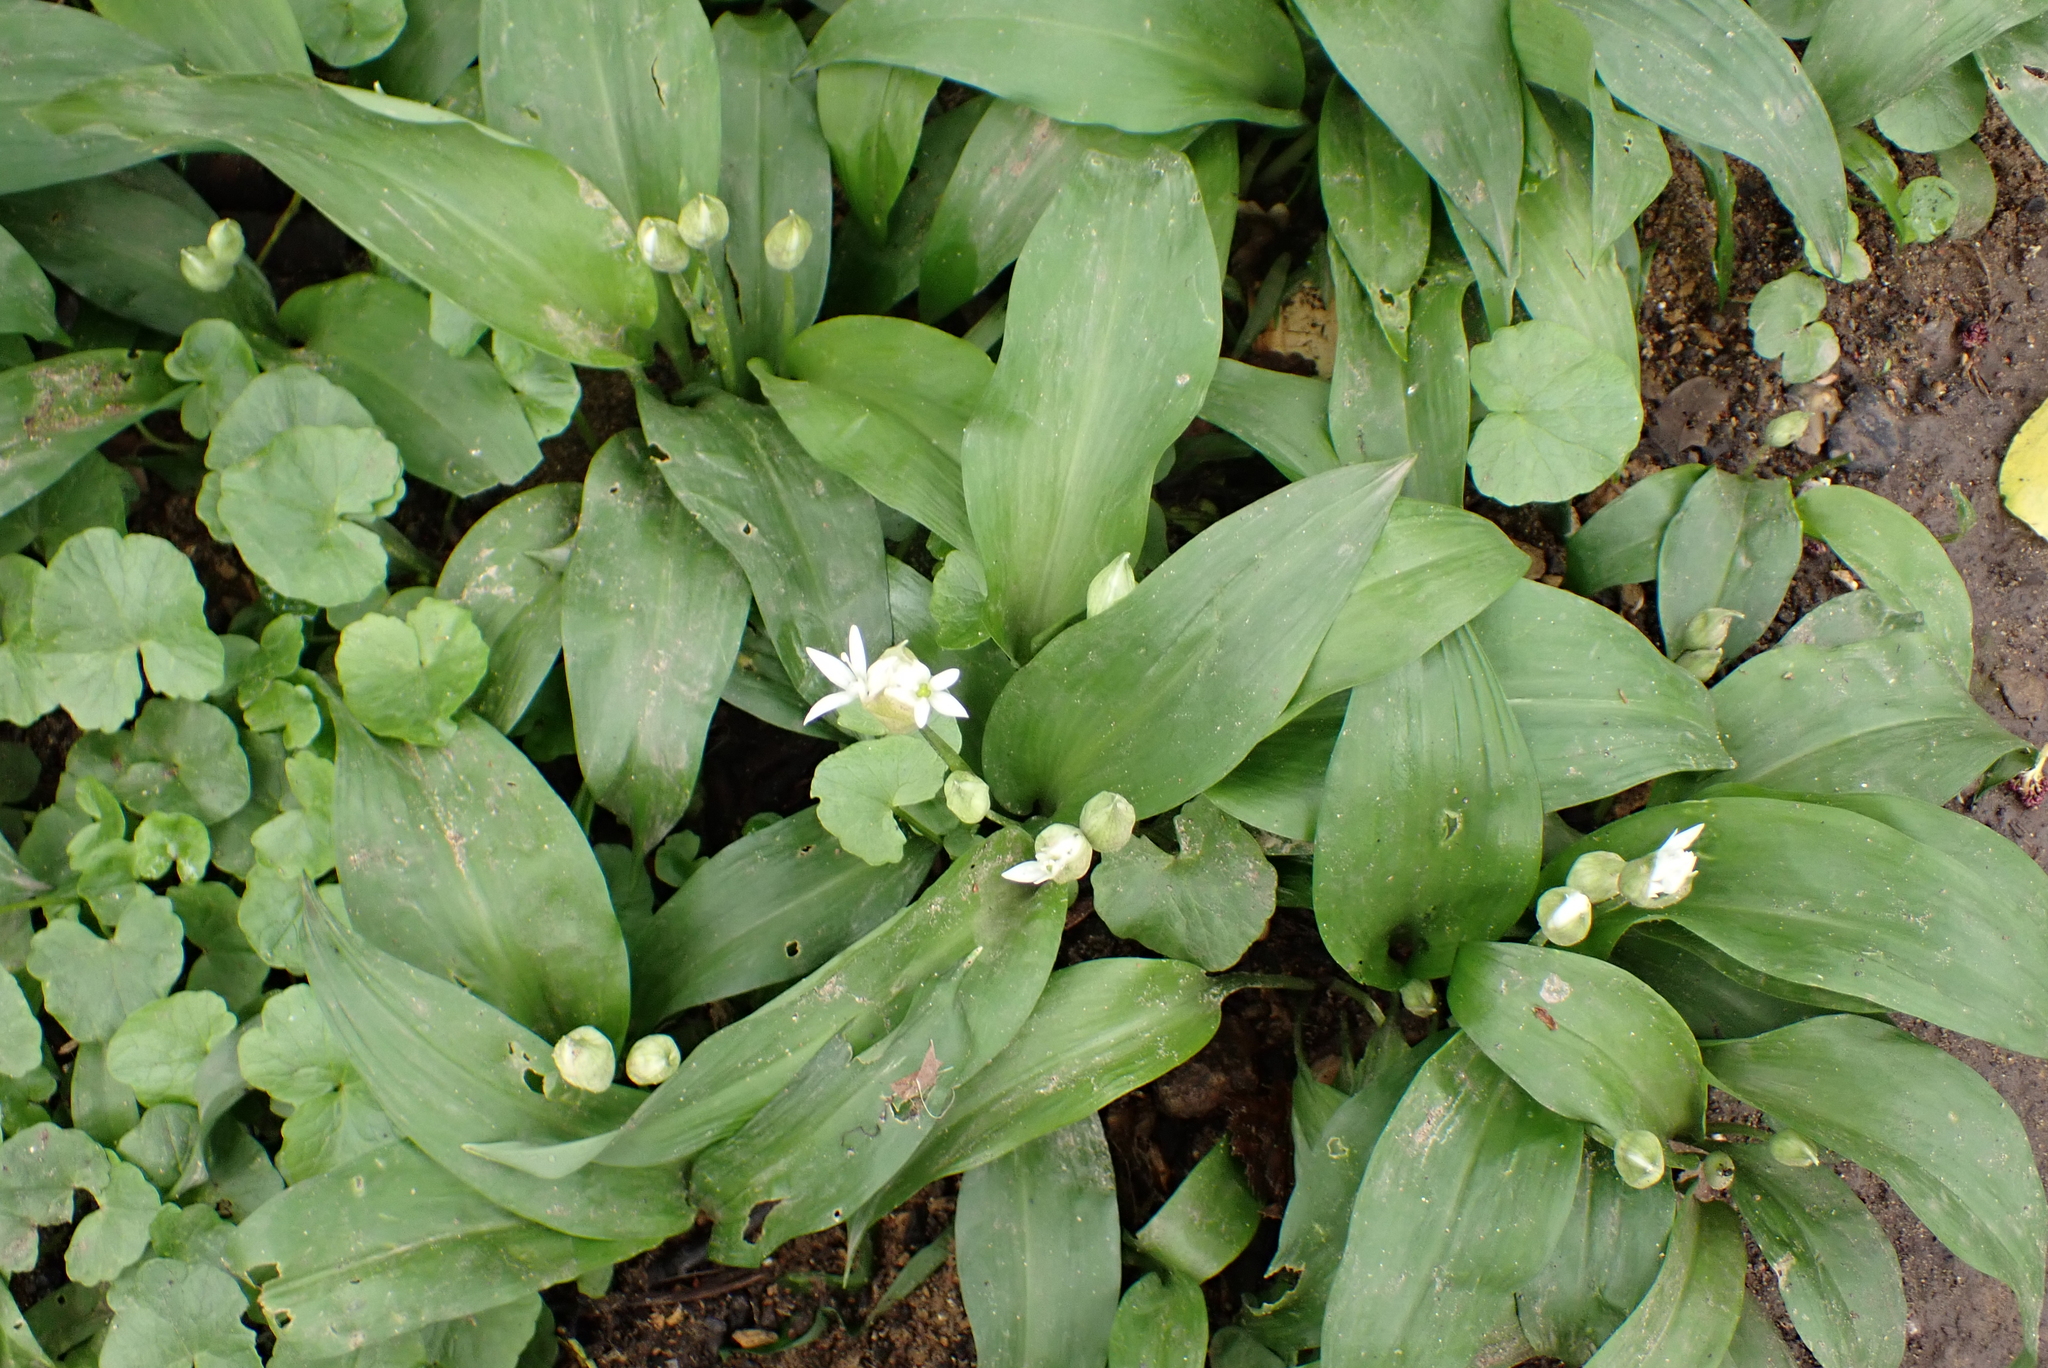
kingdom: Plantae
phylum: Tracheophyta
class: Liliopsida
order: Asparagales
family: Amaryllidaceae
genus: Allium
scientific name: Allium ursinum
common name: Ramsons
